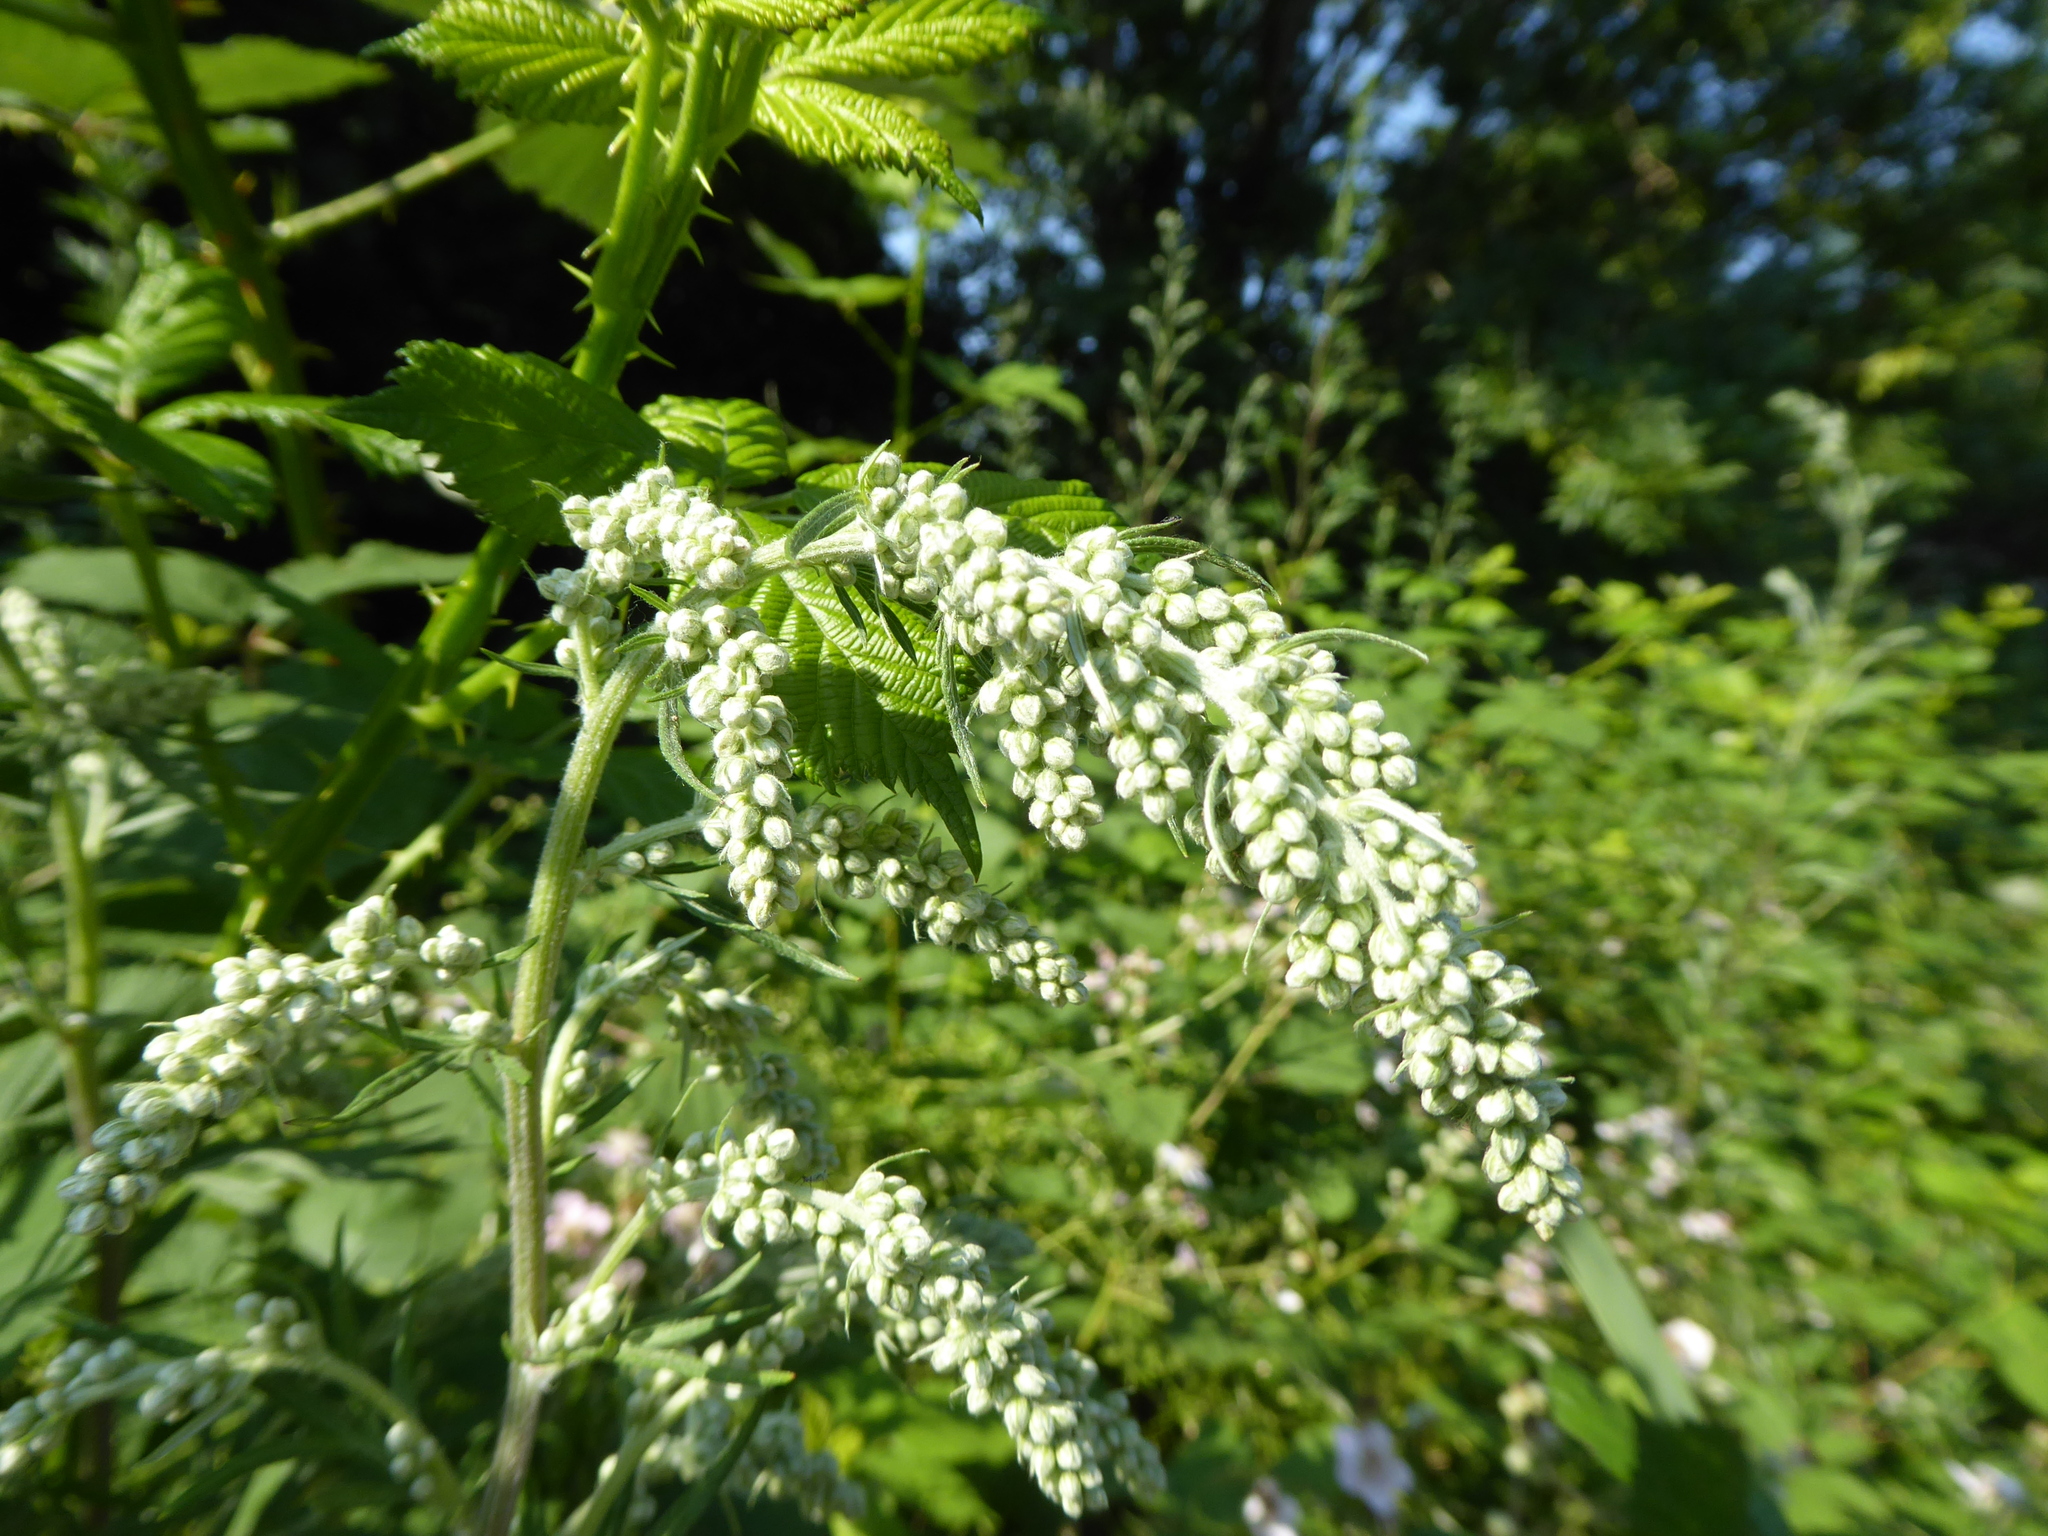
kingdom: Plantae
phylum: Tracheophyta
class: Magnoliopsida
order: Asterales
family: Asteraceae
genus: Artemisia
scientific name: Artemisia vulgaris
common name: Mugwort
